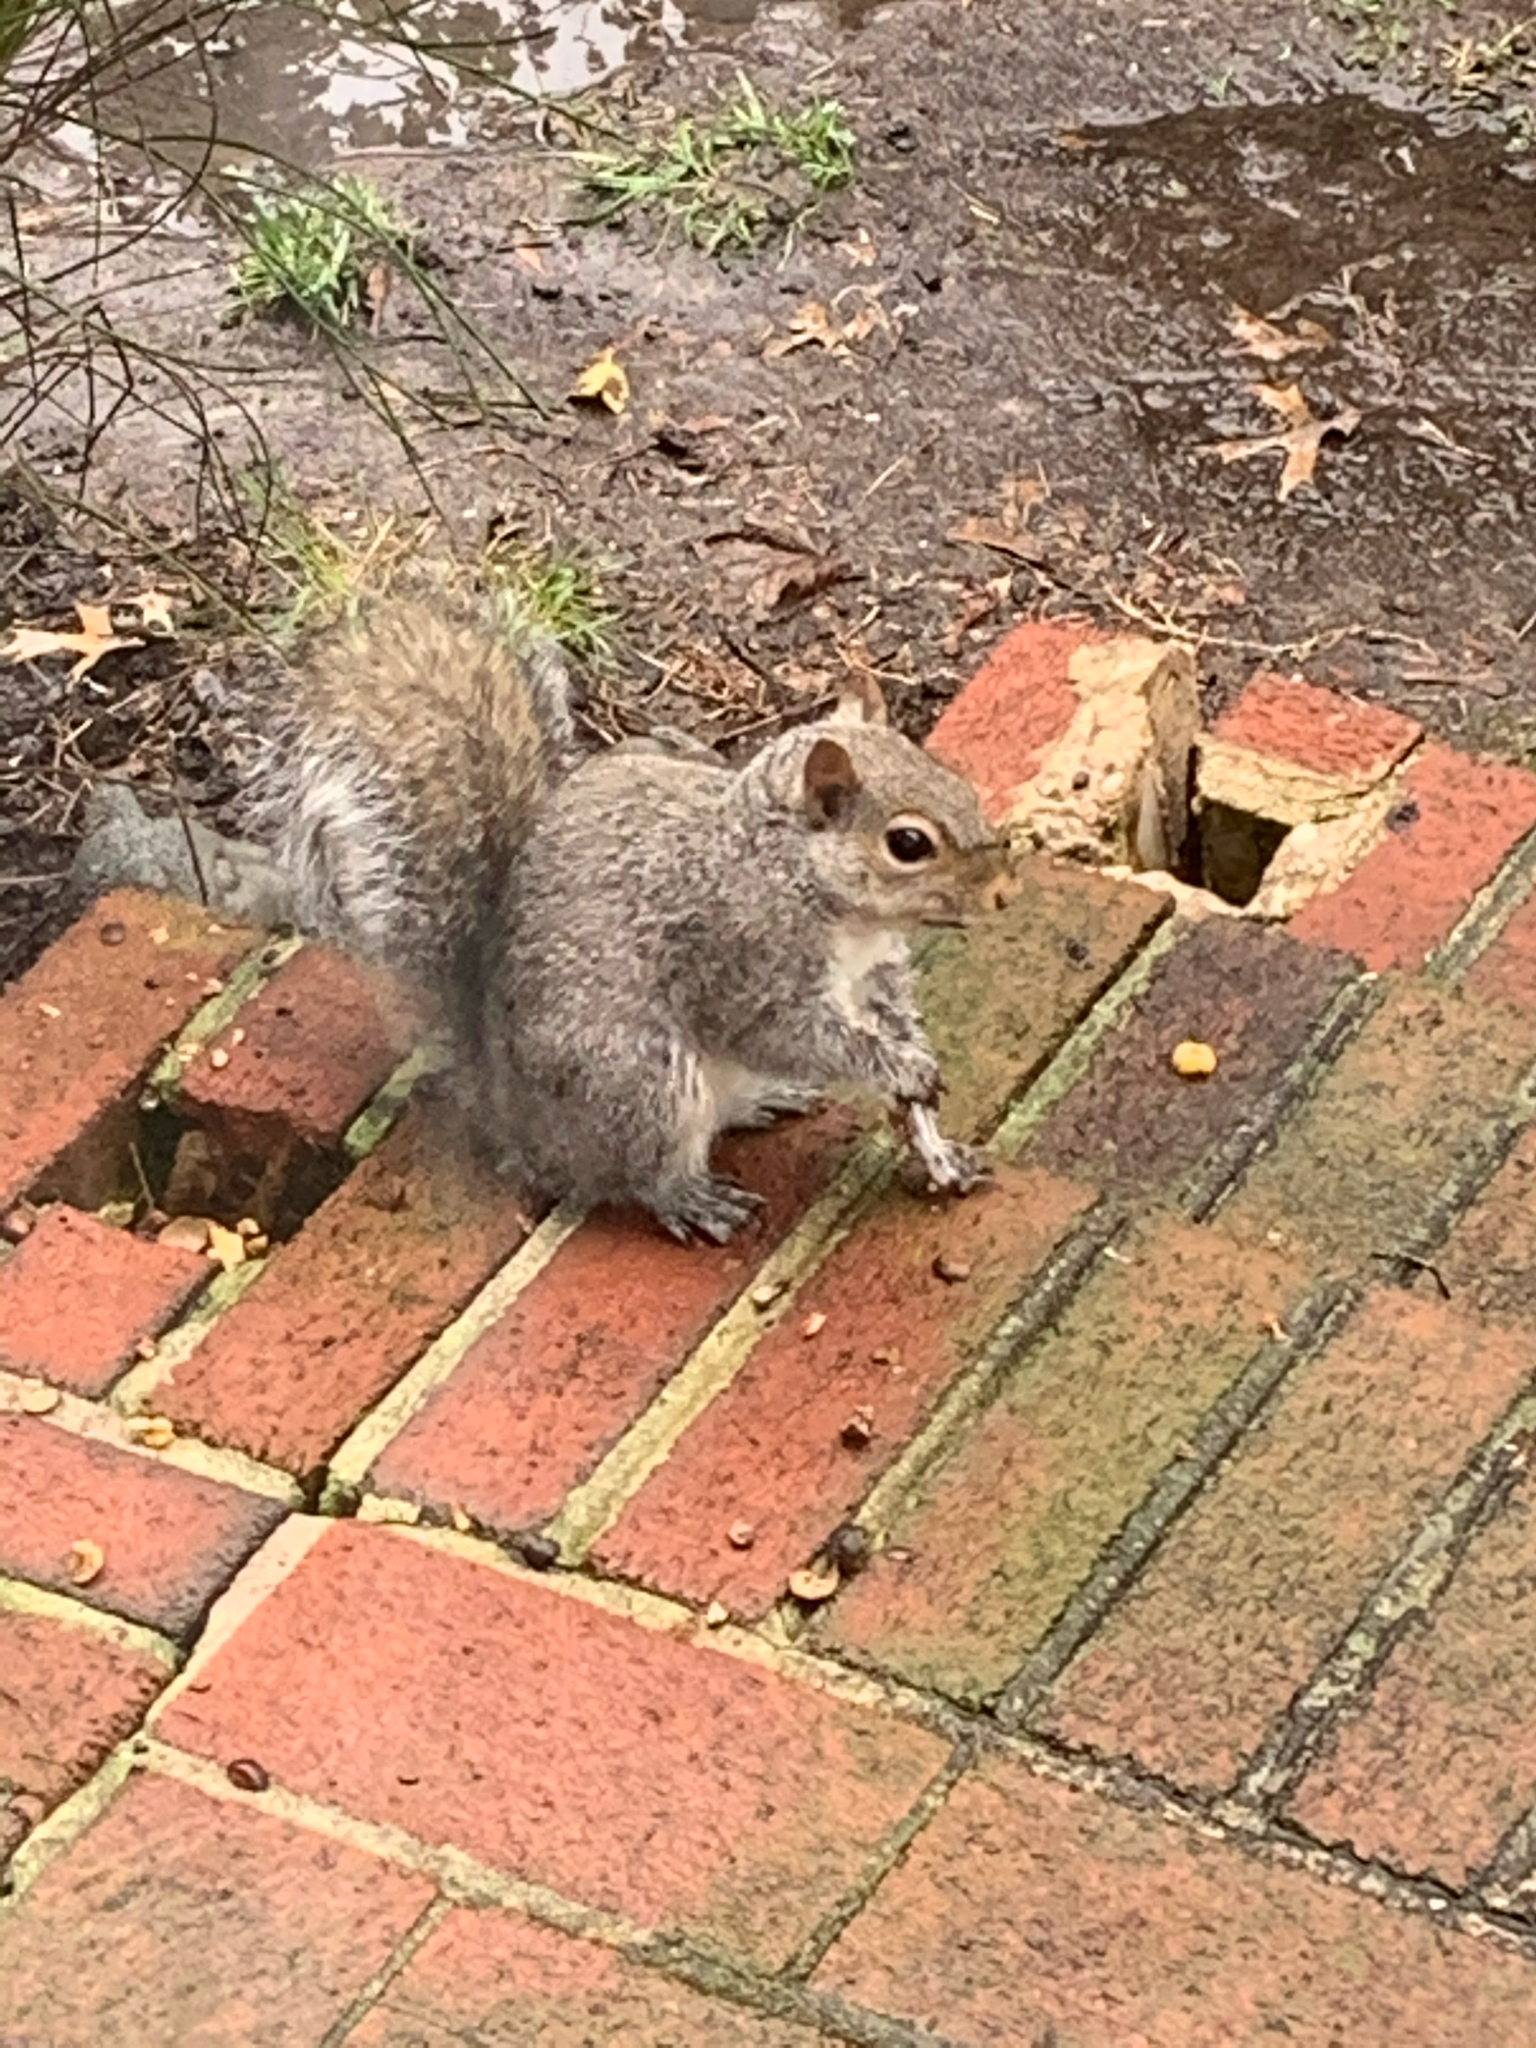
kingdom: Animalia
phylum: Chordata
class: Mammalia
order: Rodentia
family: Sciuridae
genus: Sciurus
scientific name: Sciurus carolinensis
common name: Eastern gray squirrel
